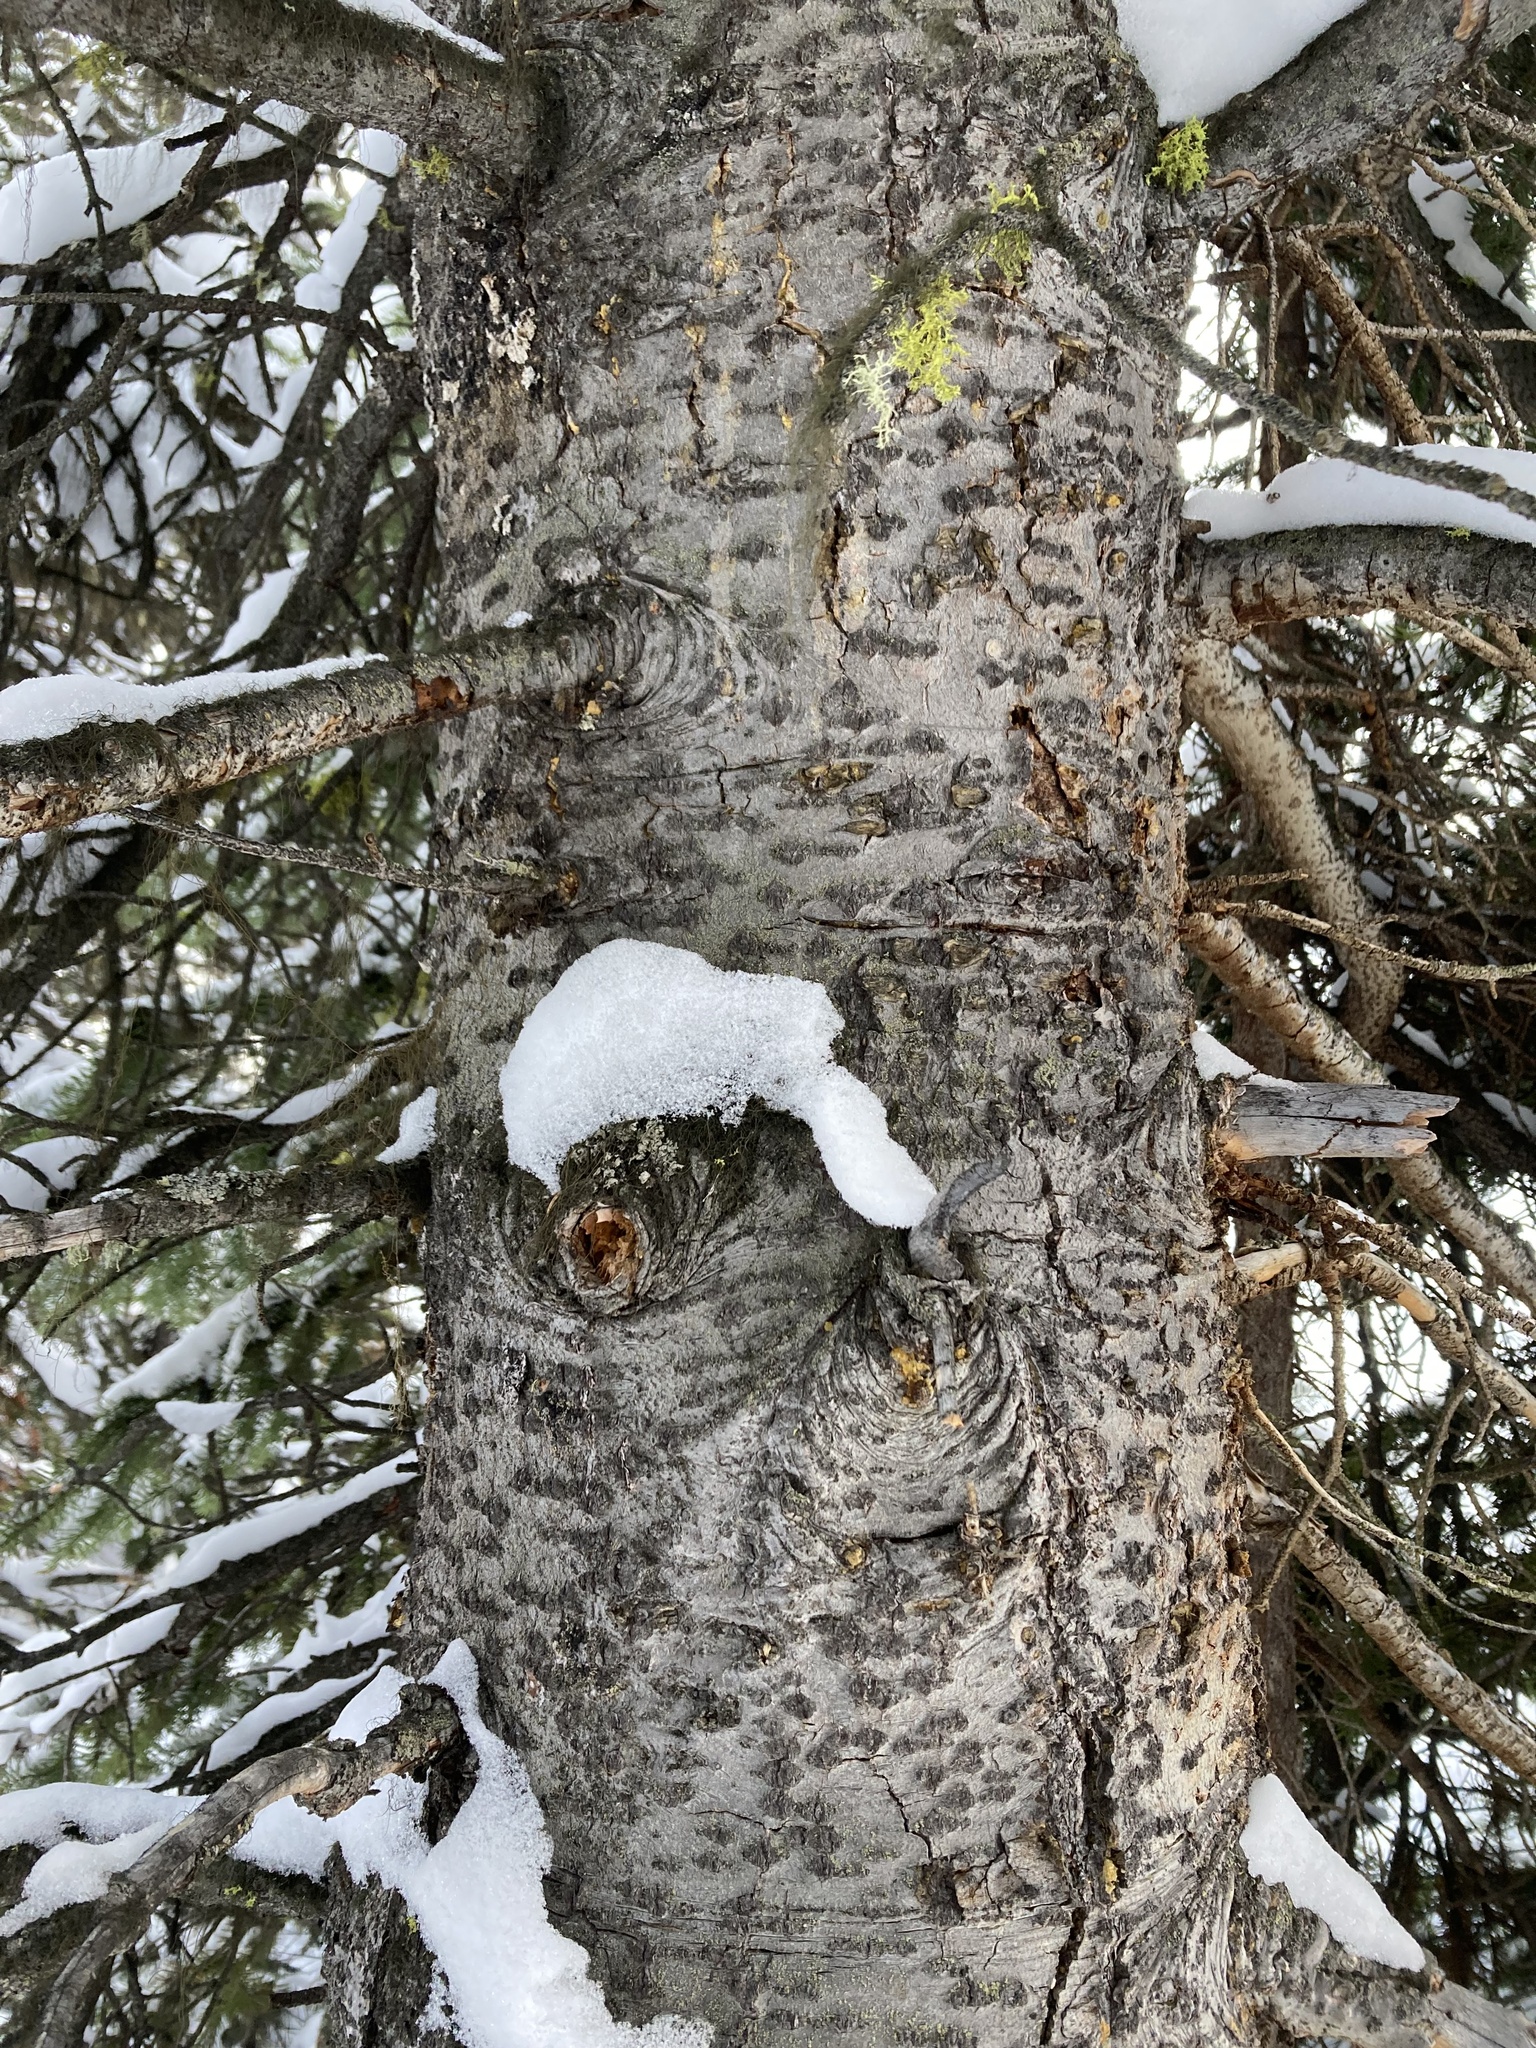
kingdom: Plantae
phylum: Tracheophyta
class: Pinopsida
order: Pinales
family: Pinaceae
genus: Abies
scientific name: Abies lasiocarpa
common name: Subalpine fir
